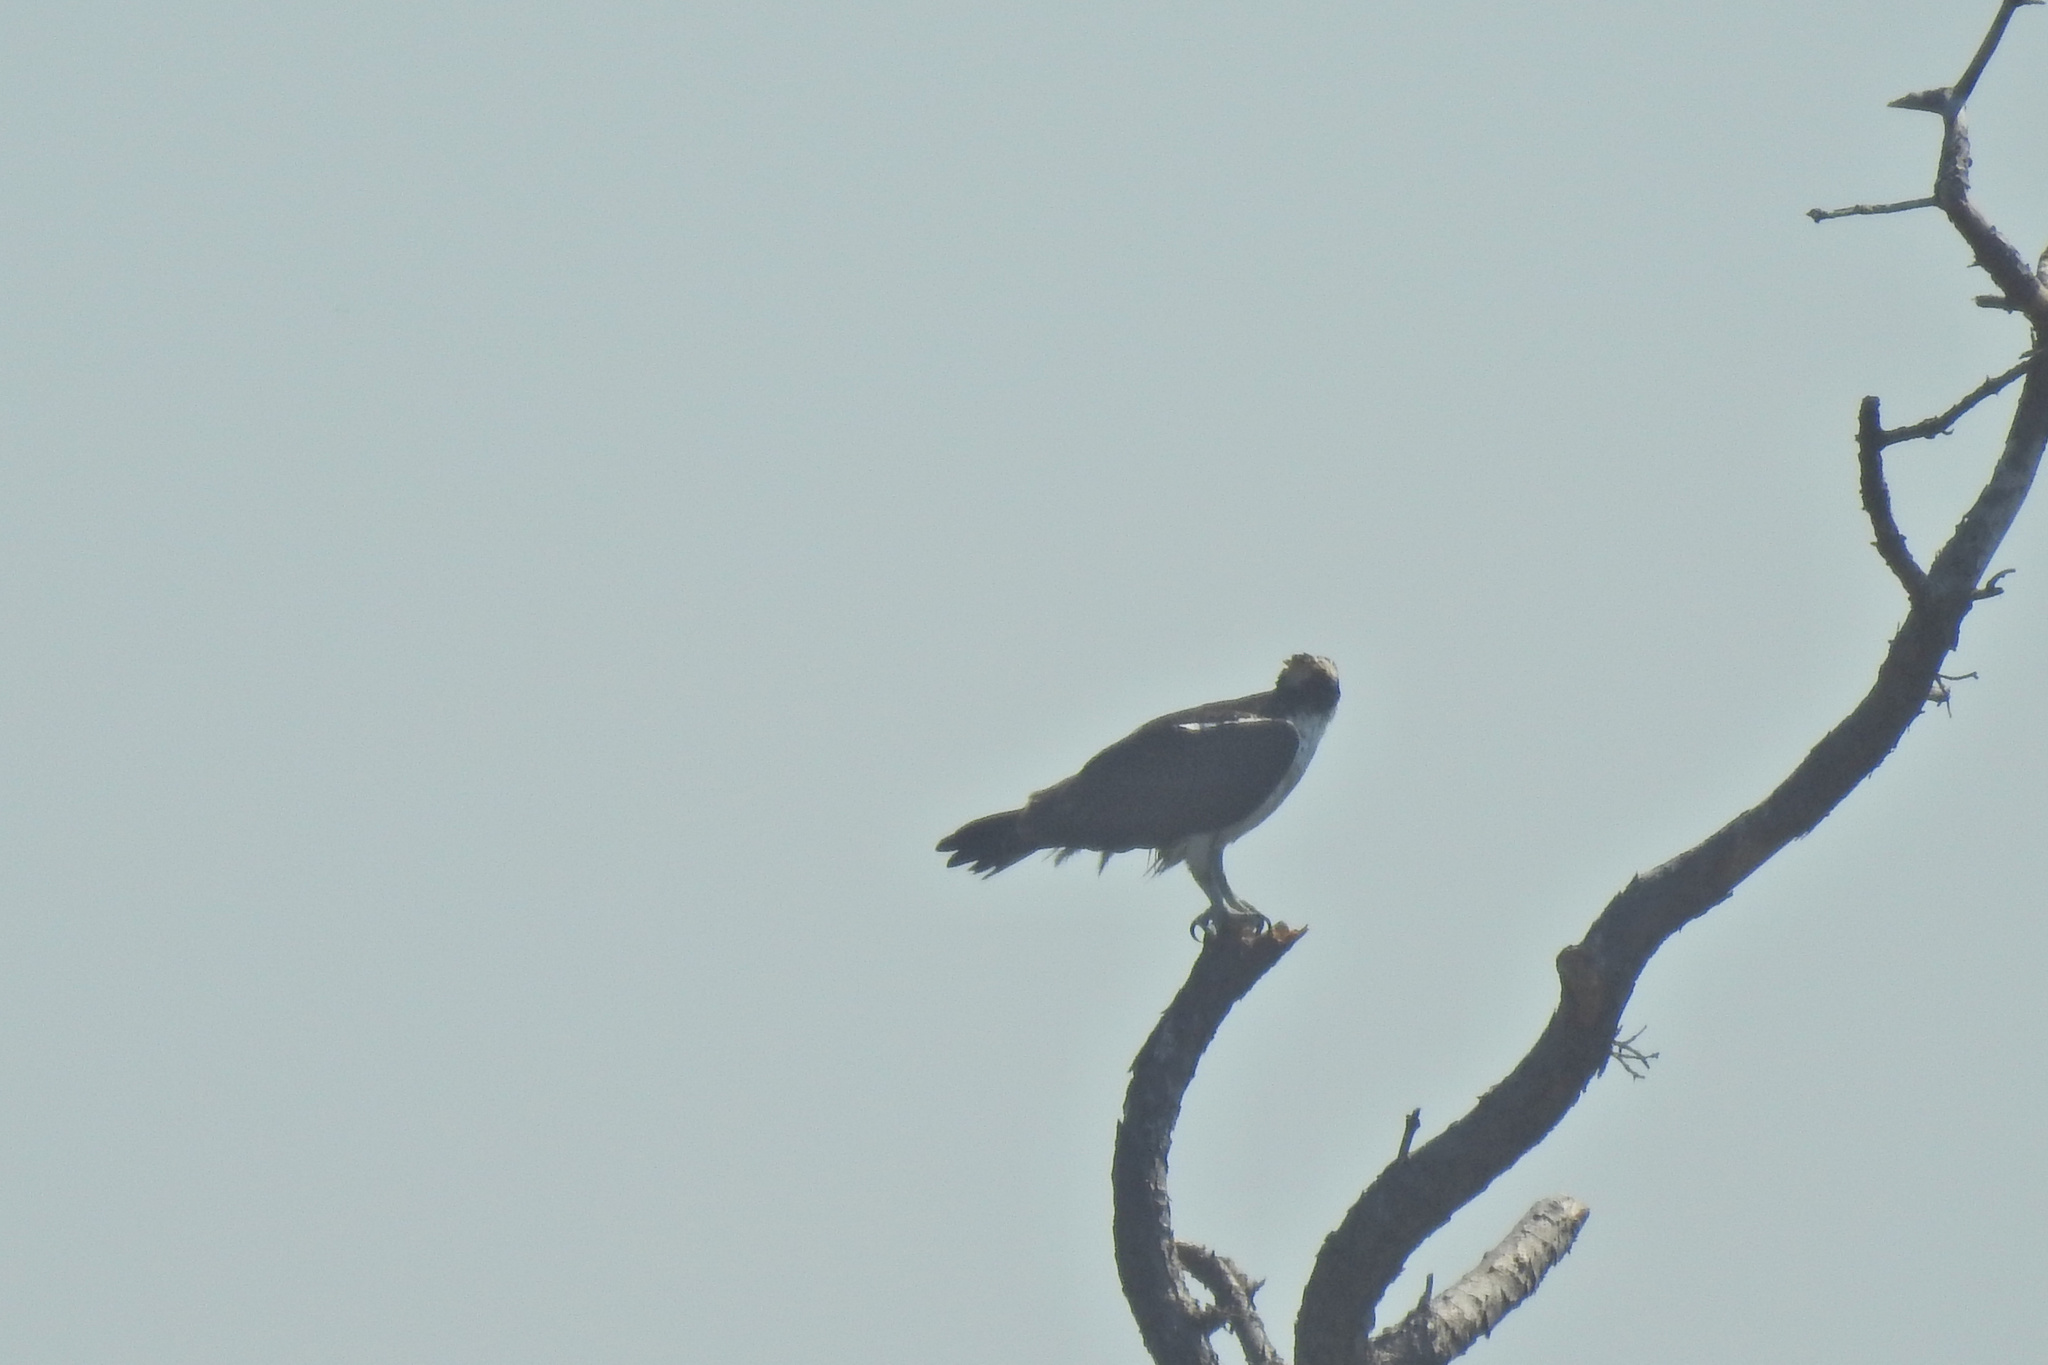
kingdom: Animalia
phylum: Chordata
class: Aves
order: Accipitriformes
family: Pandionidae
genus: Pandion
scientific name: Pandion haliaetus
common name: Osprey
